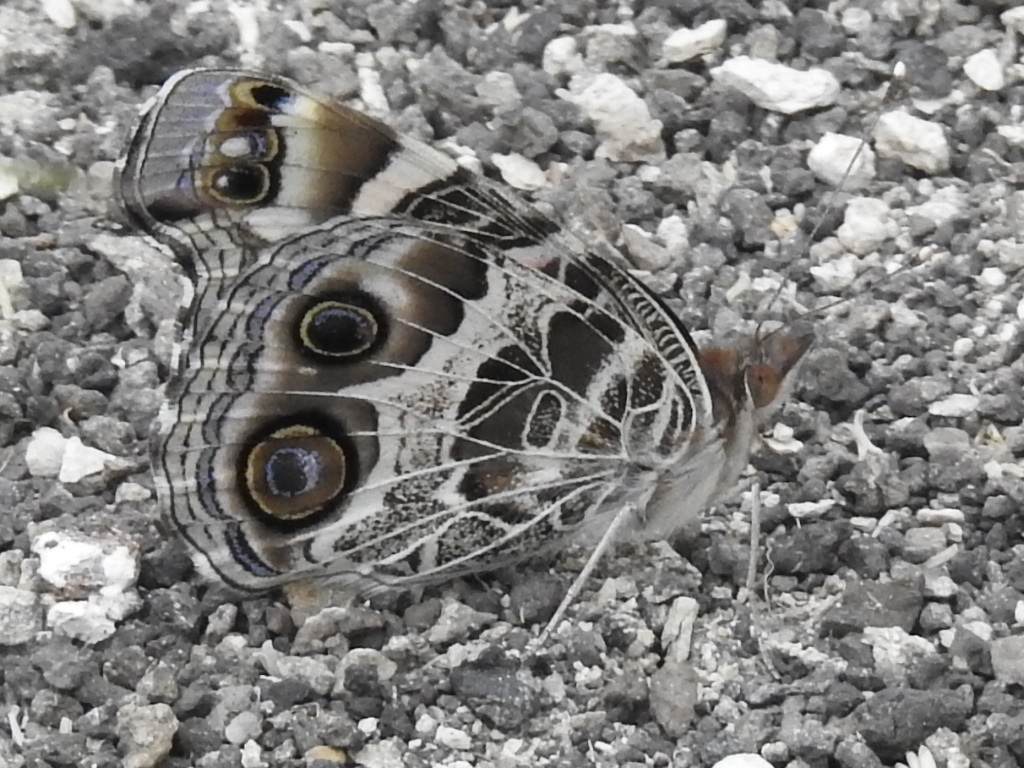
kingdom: Animalia
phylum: Arthropoda
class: Insecta
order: Lepidoptera
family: Nymphalidae
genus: Vanessa
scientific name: Vanessa virginiensis
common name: American lady
